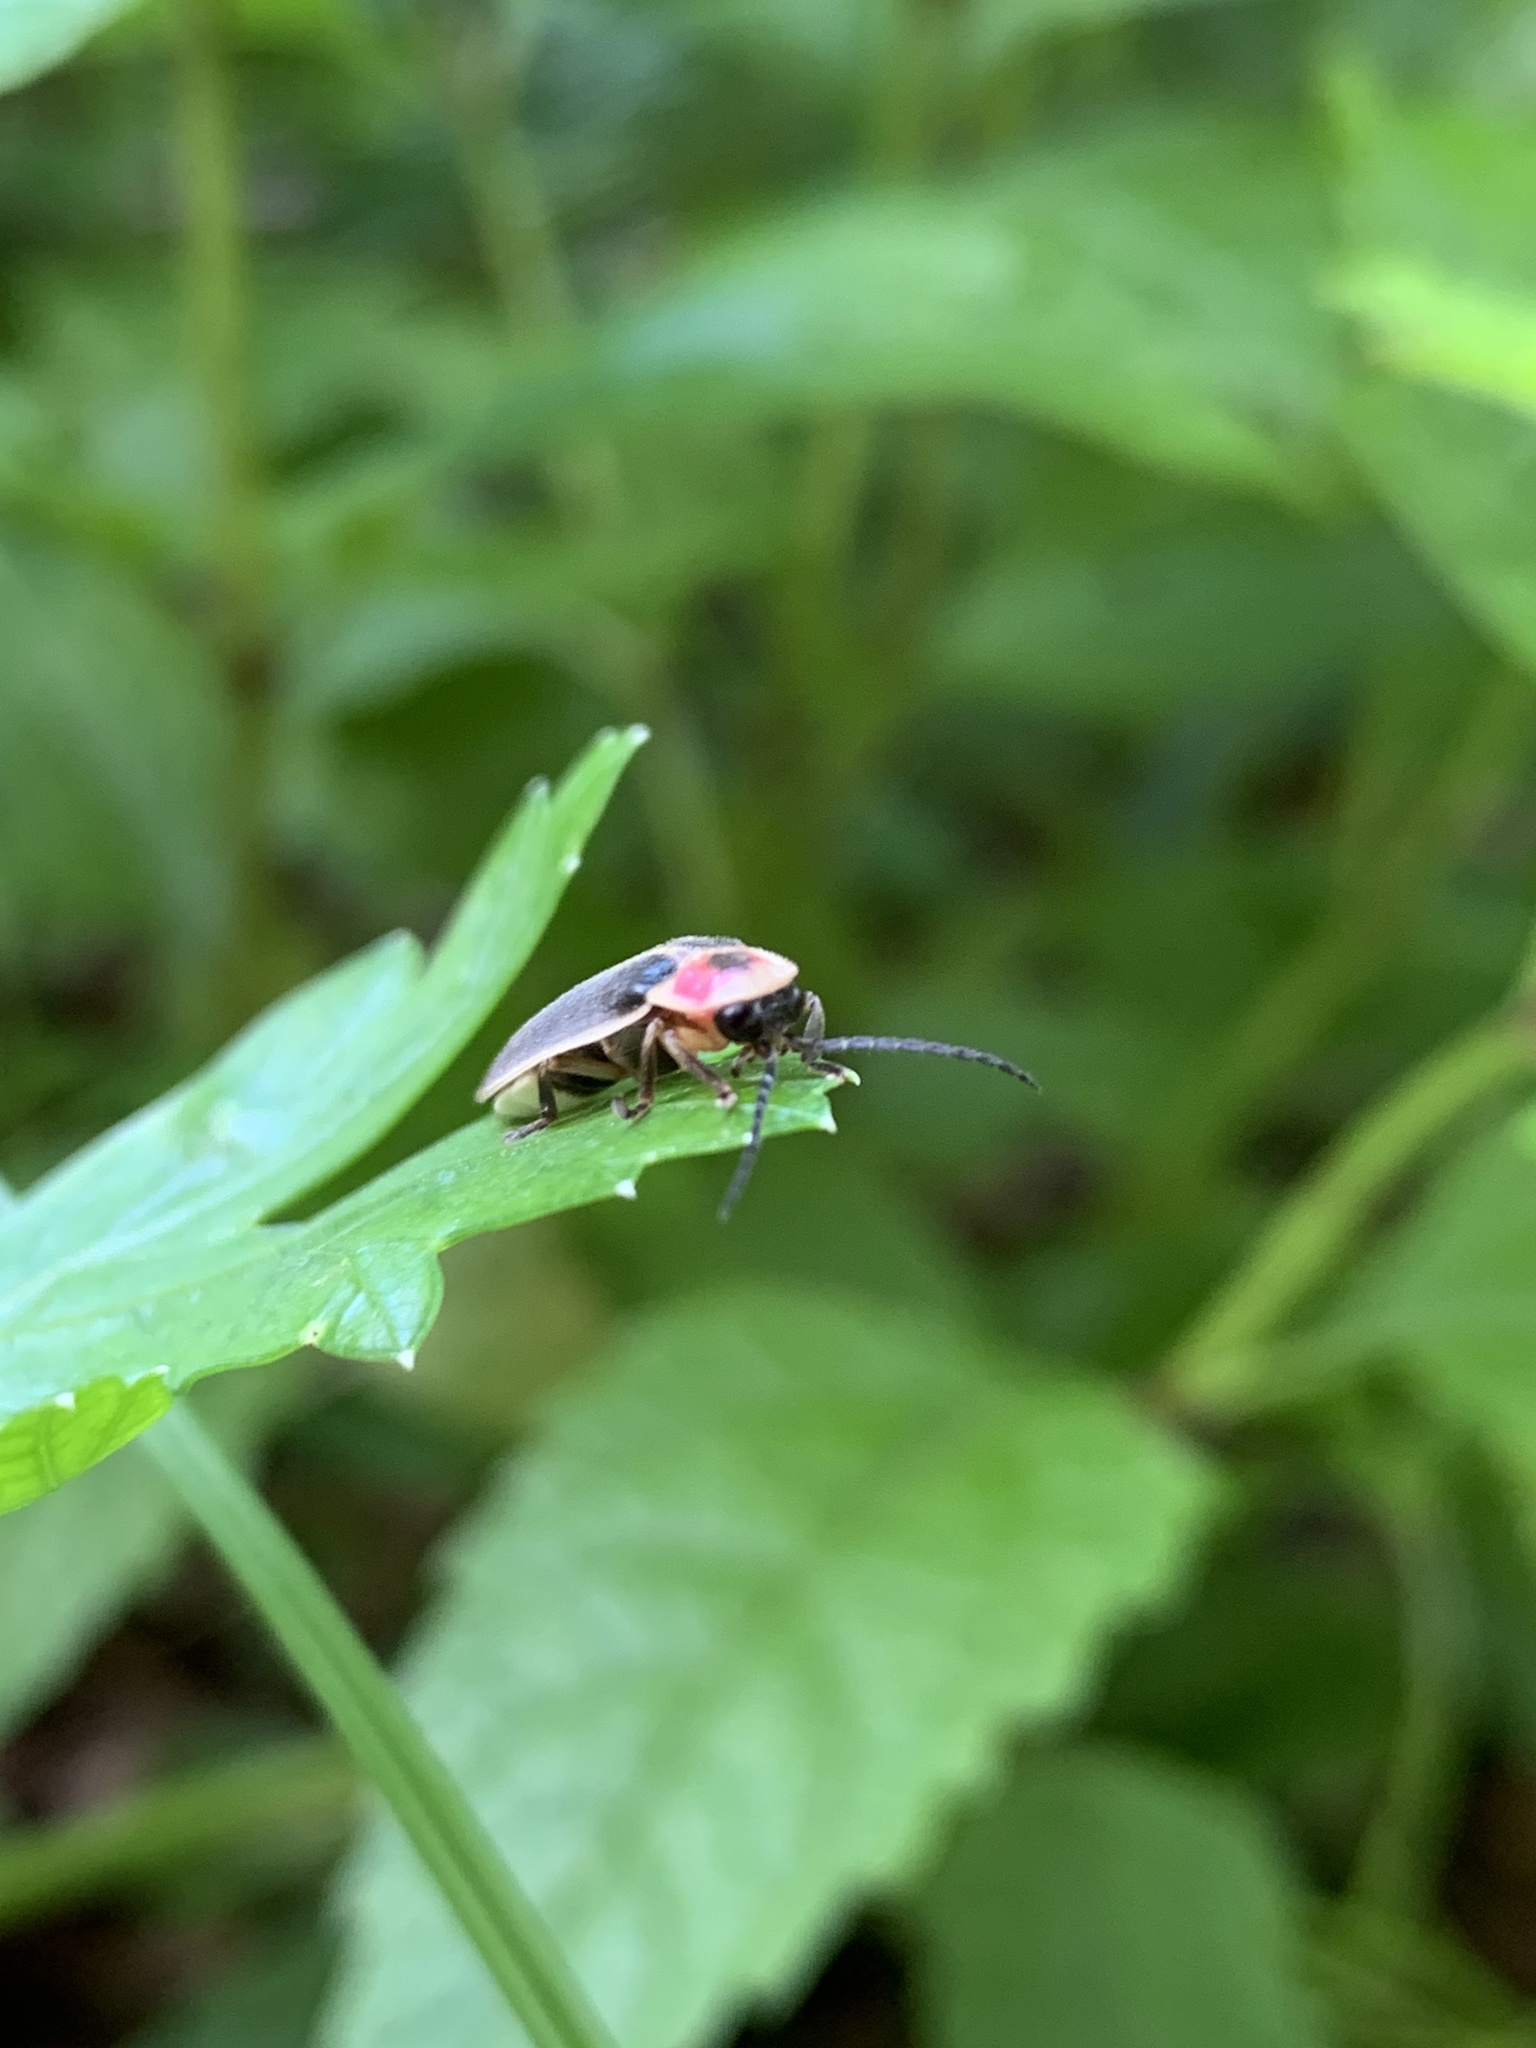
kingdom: Animalia
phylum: Arthropoda
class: Insecta
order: Coleoptera
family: Lampyridae
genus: Photinus
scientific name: Photinus pyralis
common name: Big dipper firefly
